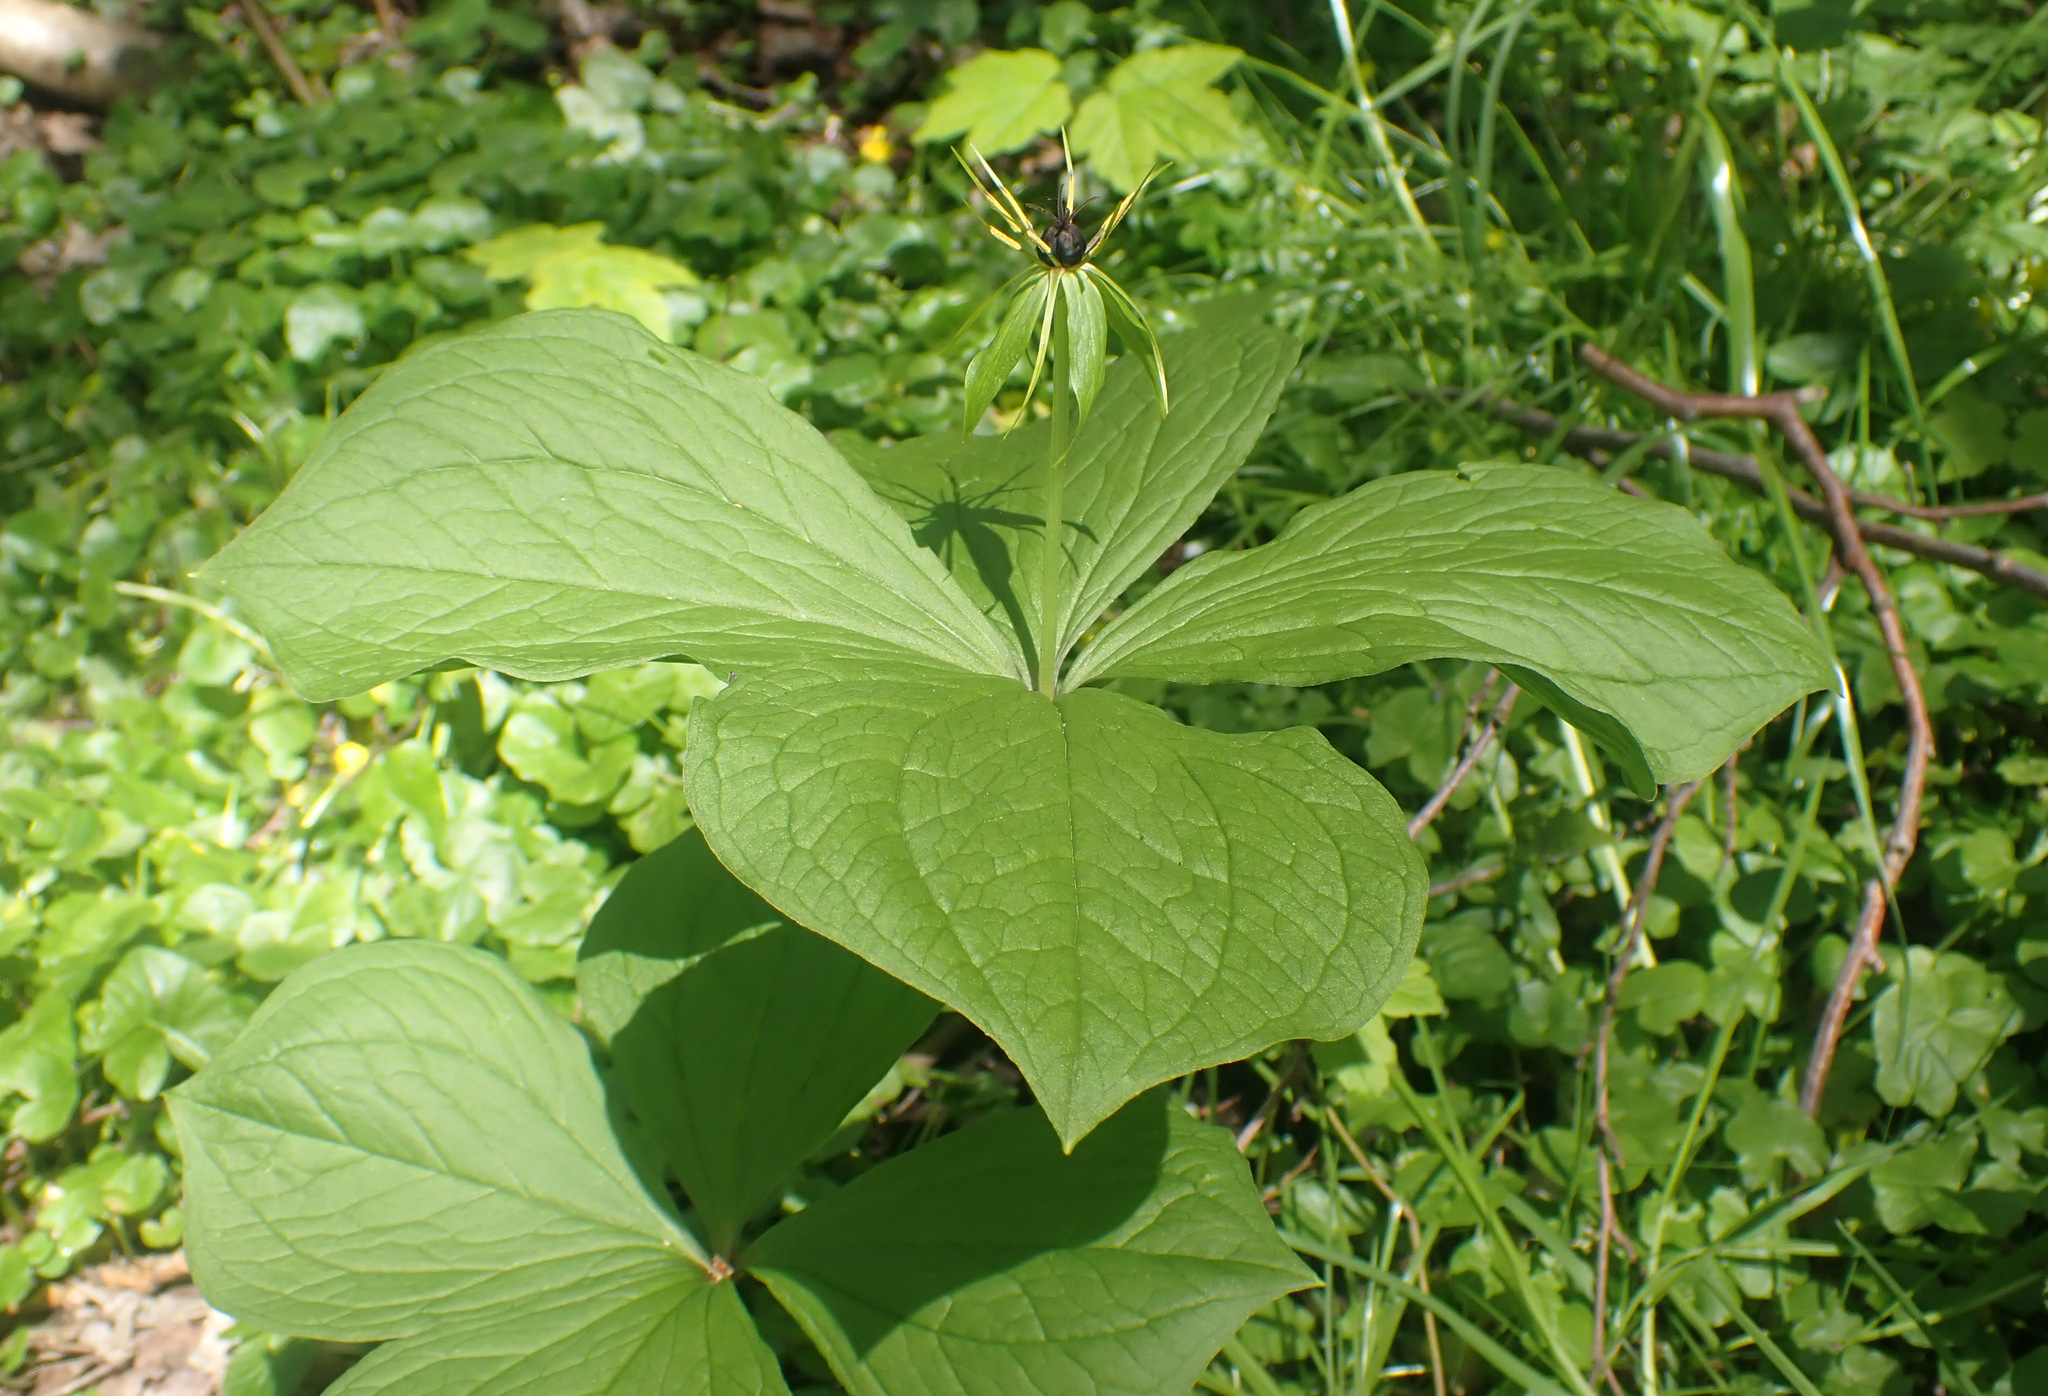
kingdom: Plantae
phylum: Tracheophyta
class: Liliopsida
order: Liliales
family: Melanthiaceae
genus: Paris
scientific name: Paris quadrifolia
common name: Herb-paris
